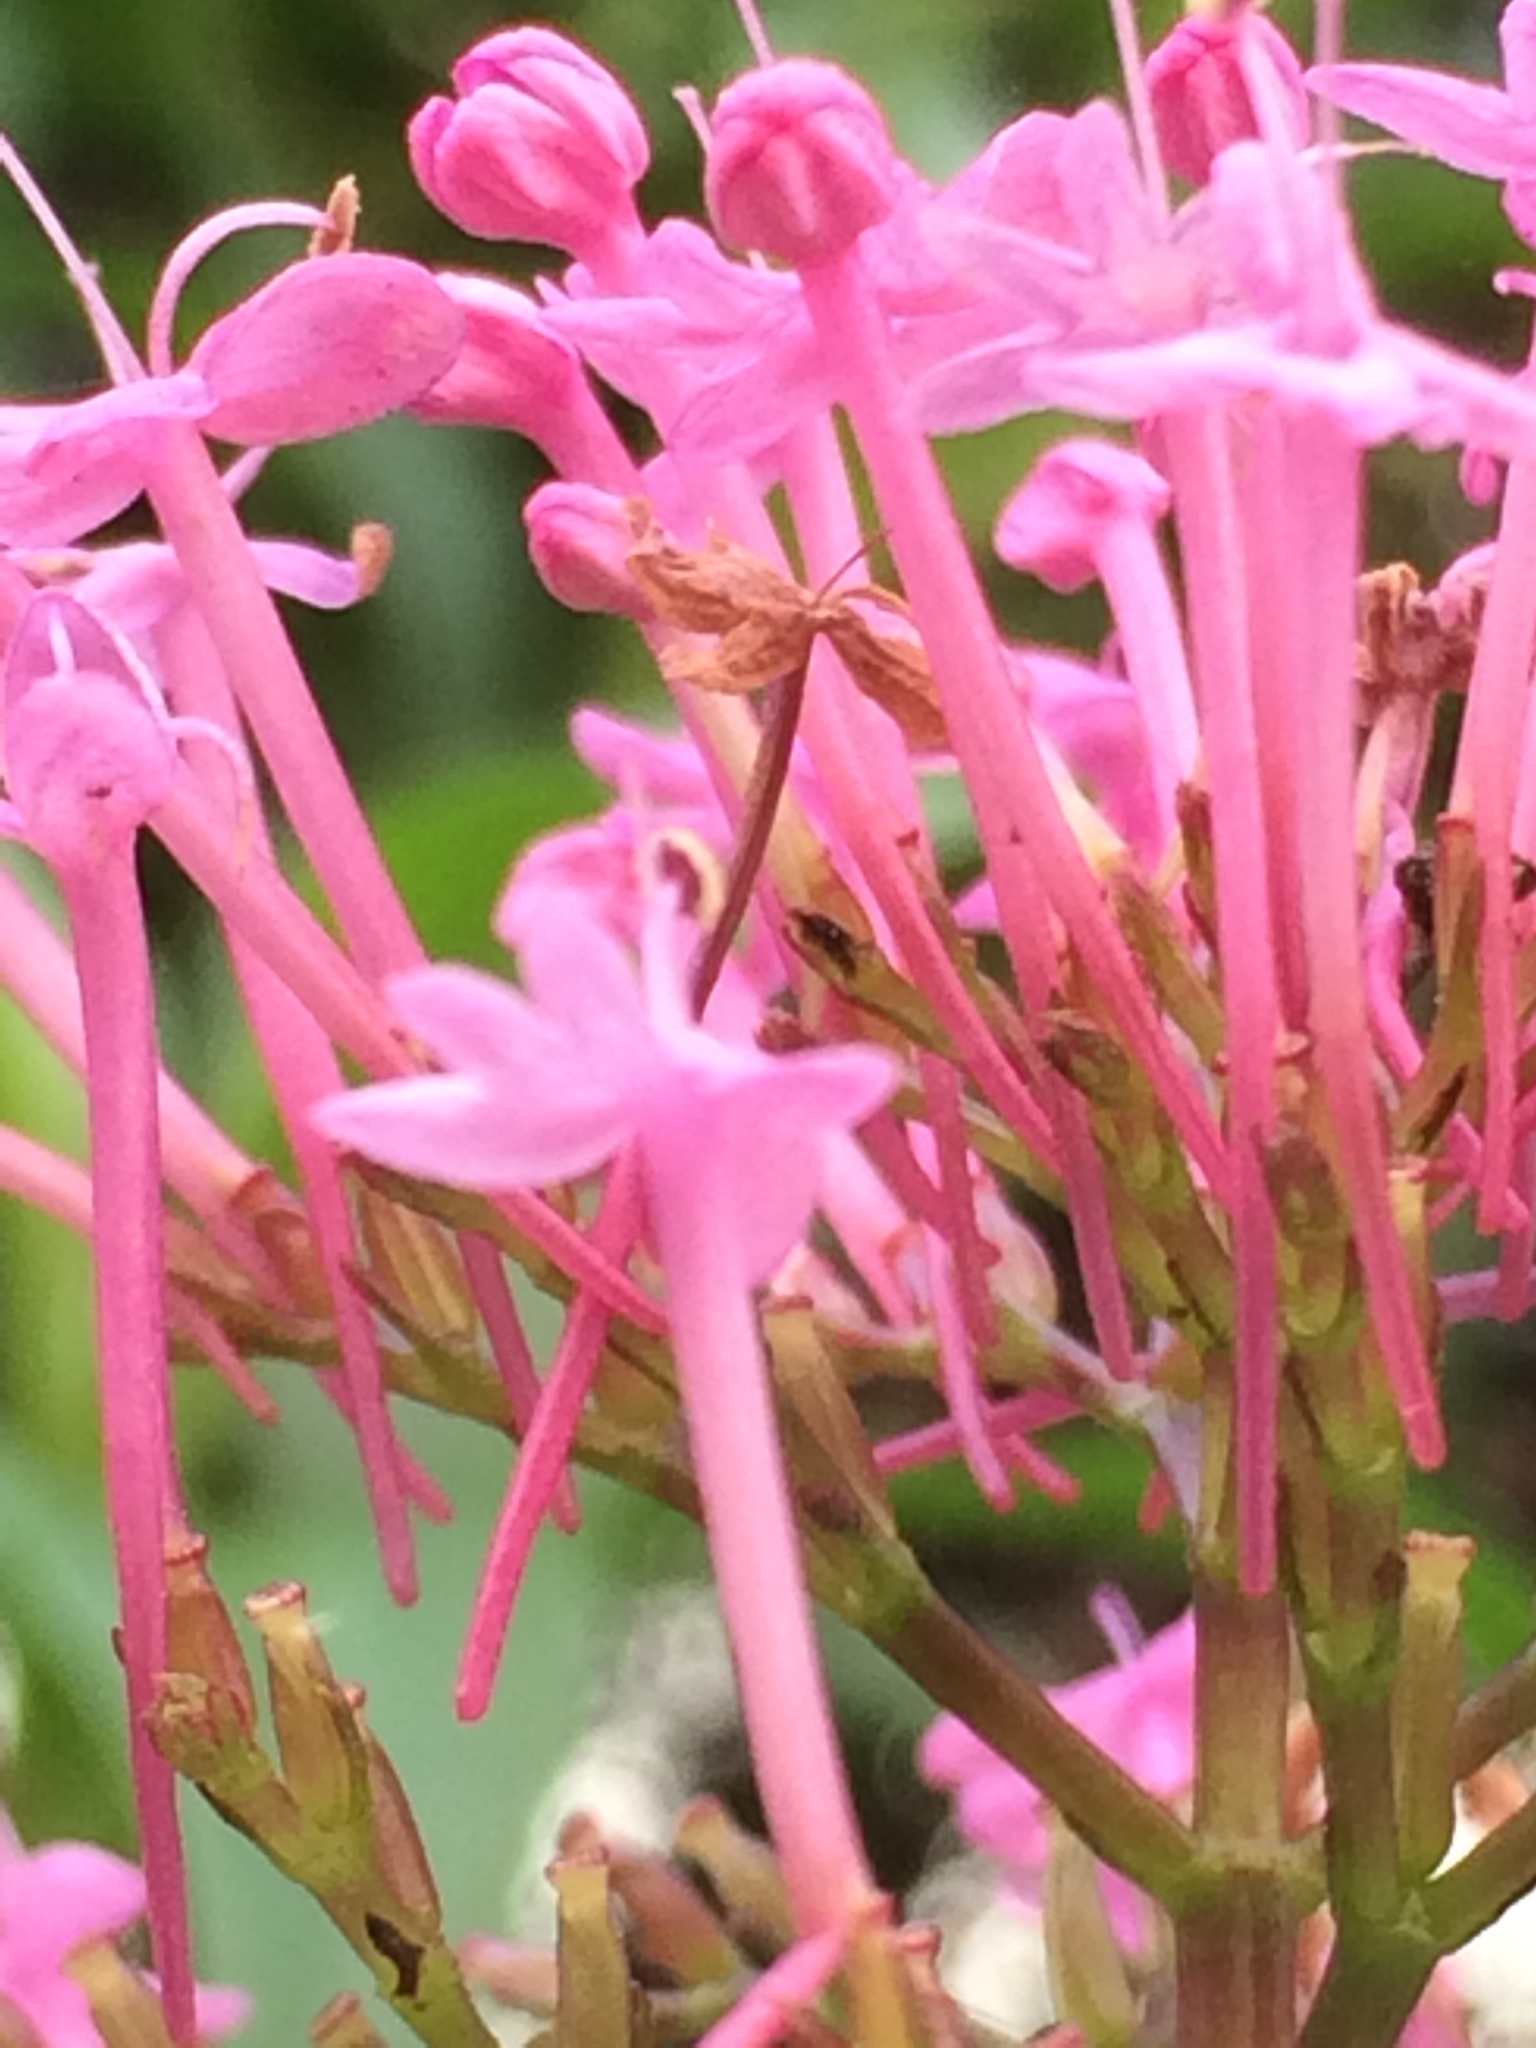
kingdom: Plantae
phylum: Tracheophyta
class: Magnoliopsida
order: Dipsacales
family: Caprifoliaceae
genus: Centranthus
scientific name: Centranthus ruber
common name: Red valerian
